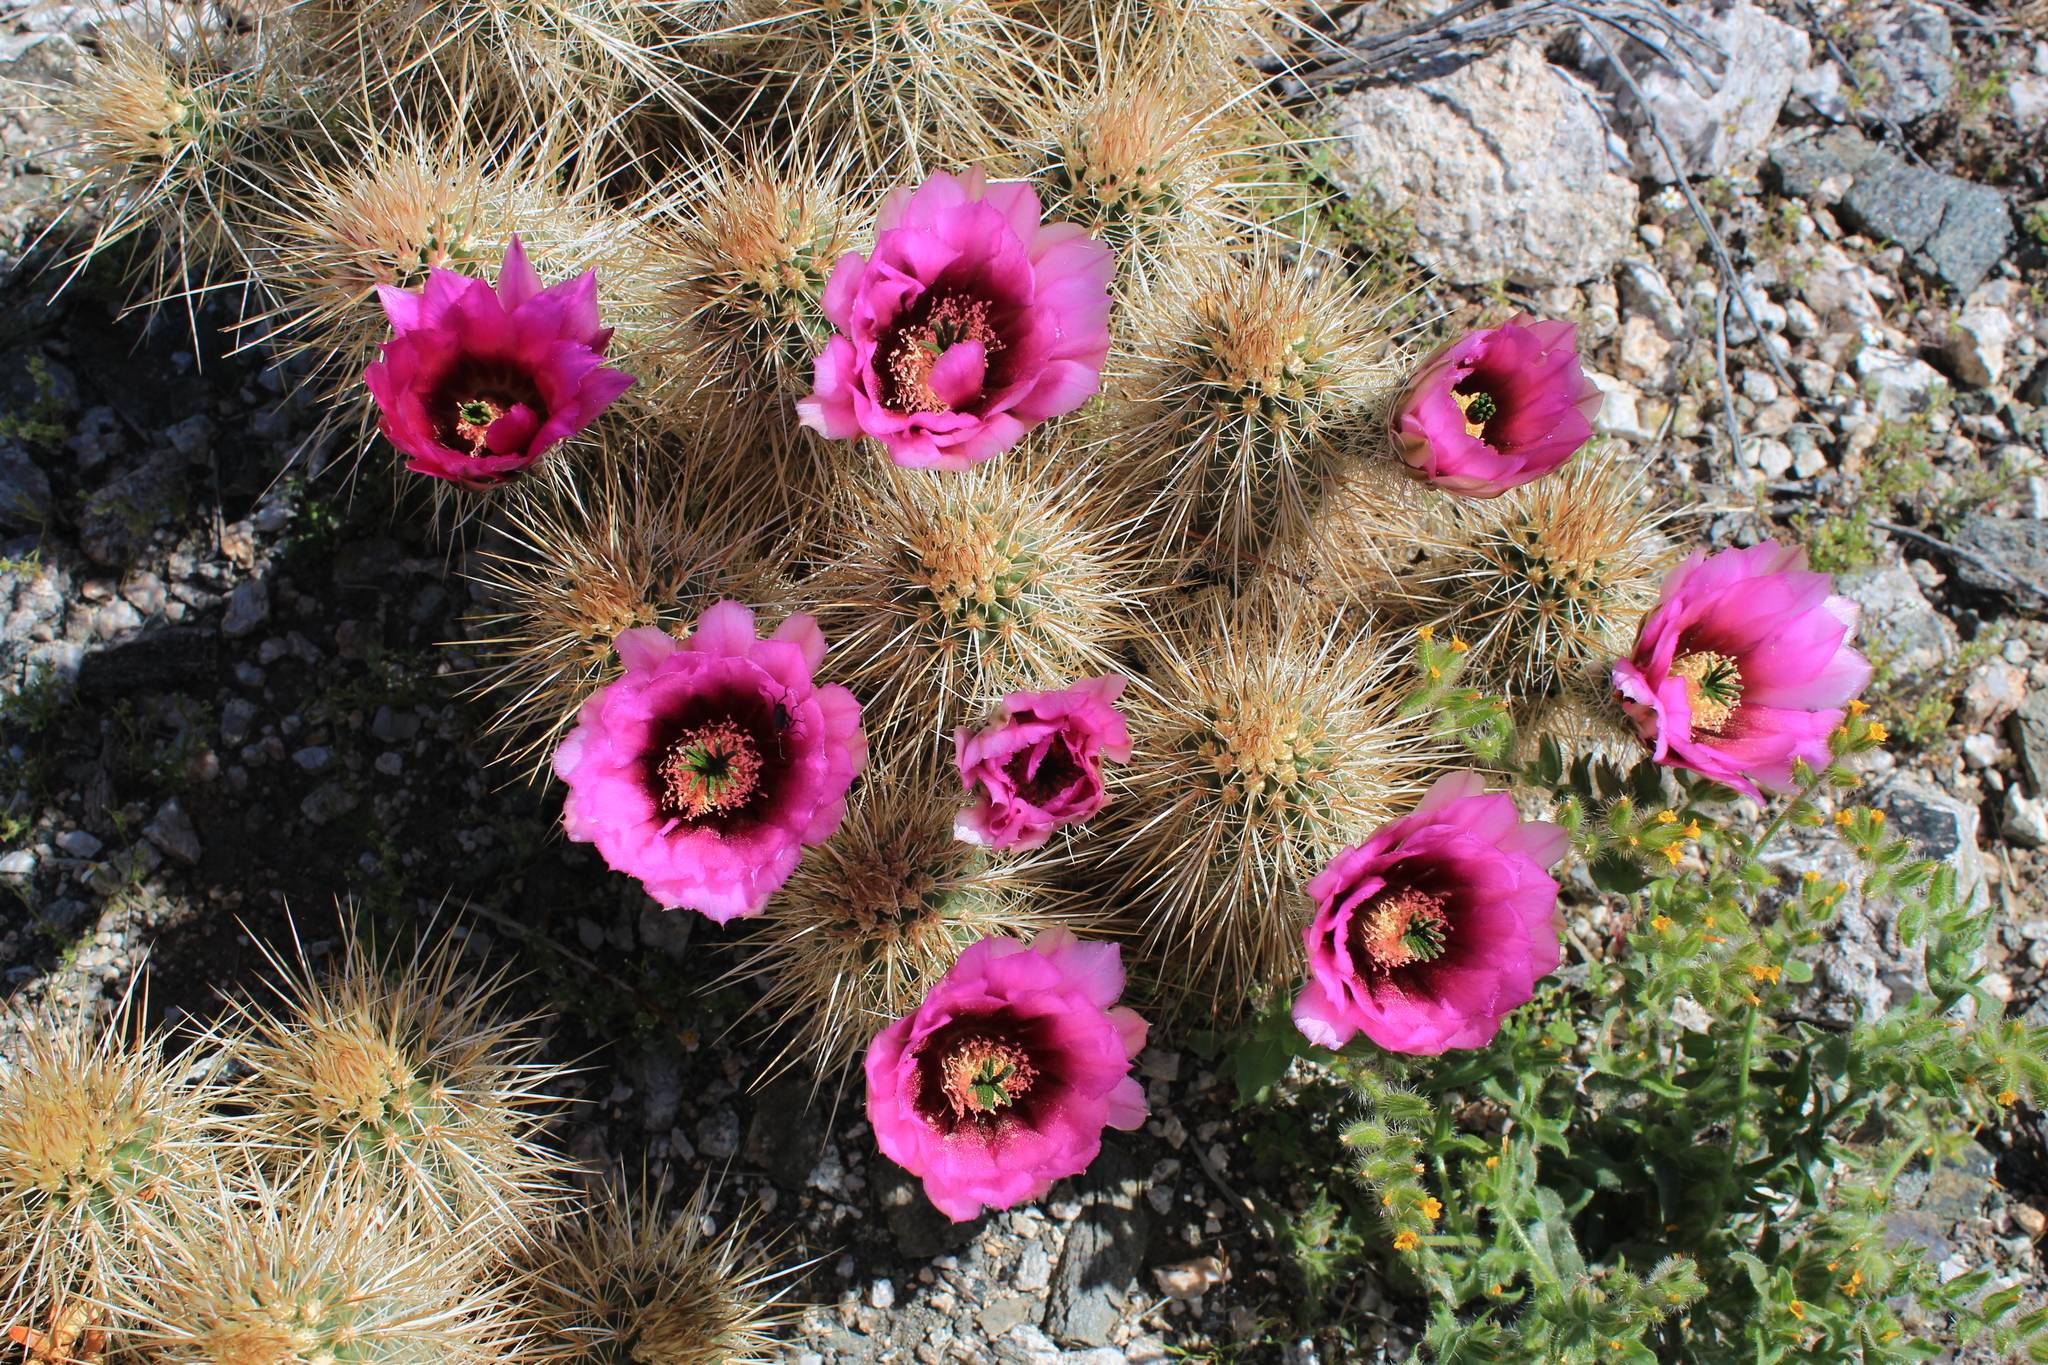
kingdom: Plantae
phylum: Tracheophyta
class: Magnoliopsida
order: Caryophyllales
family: Cactaceae
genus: Echinocereus
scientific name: Echinocereus engelmannii
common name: Engelmann's hedgehog cactus
